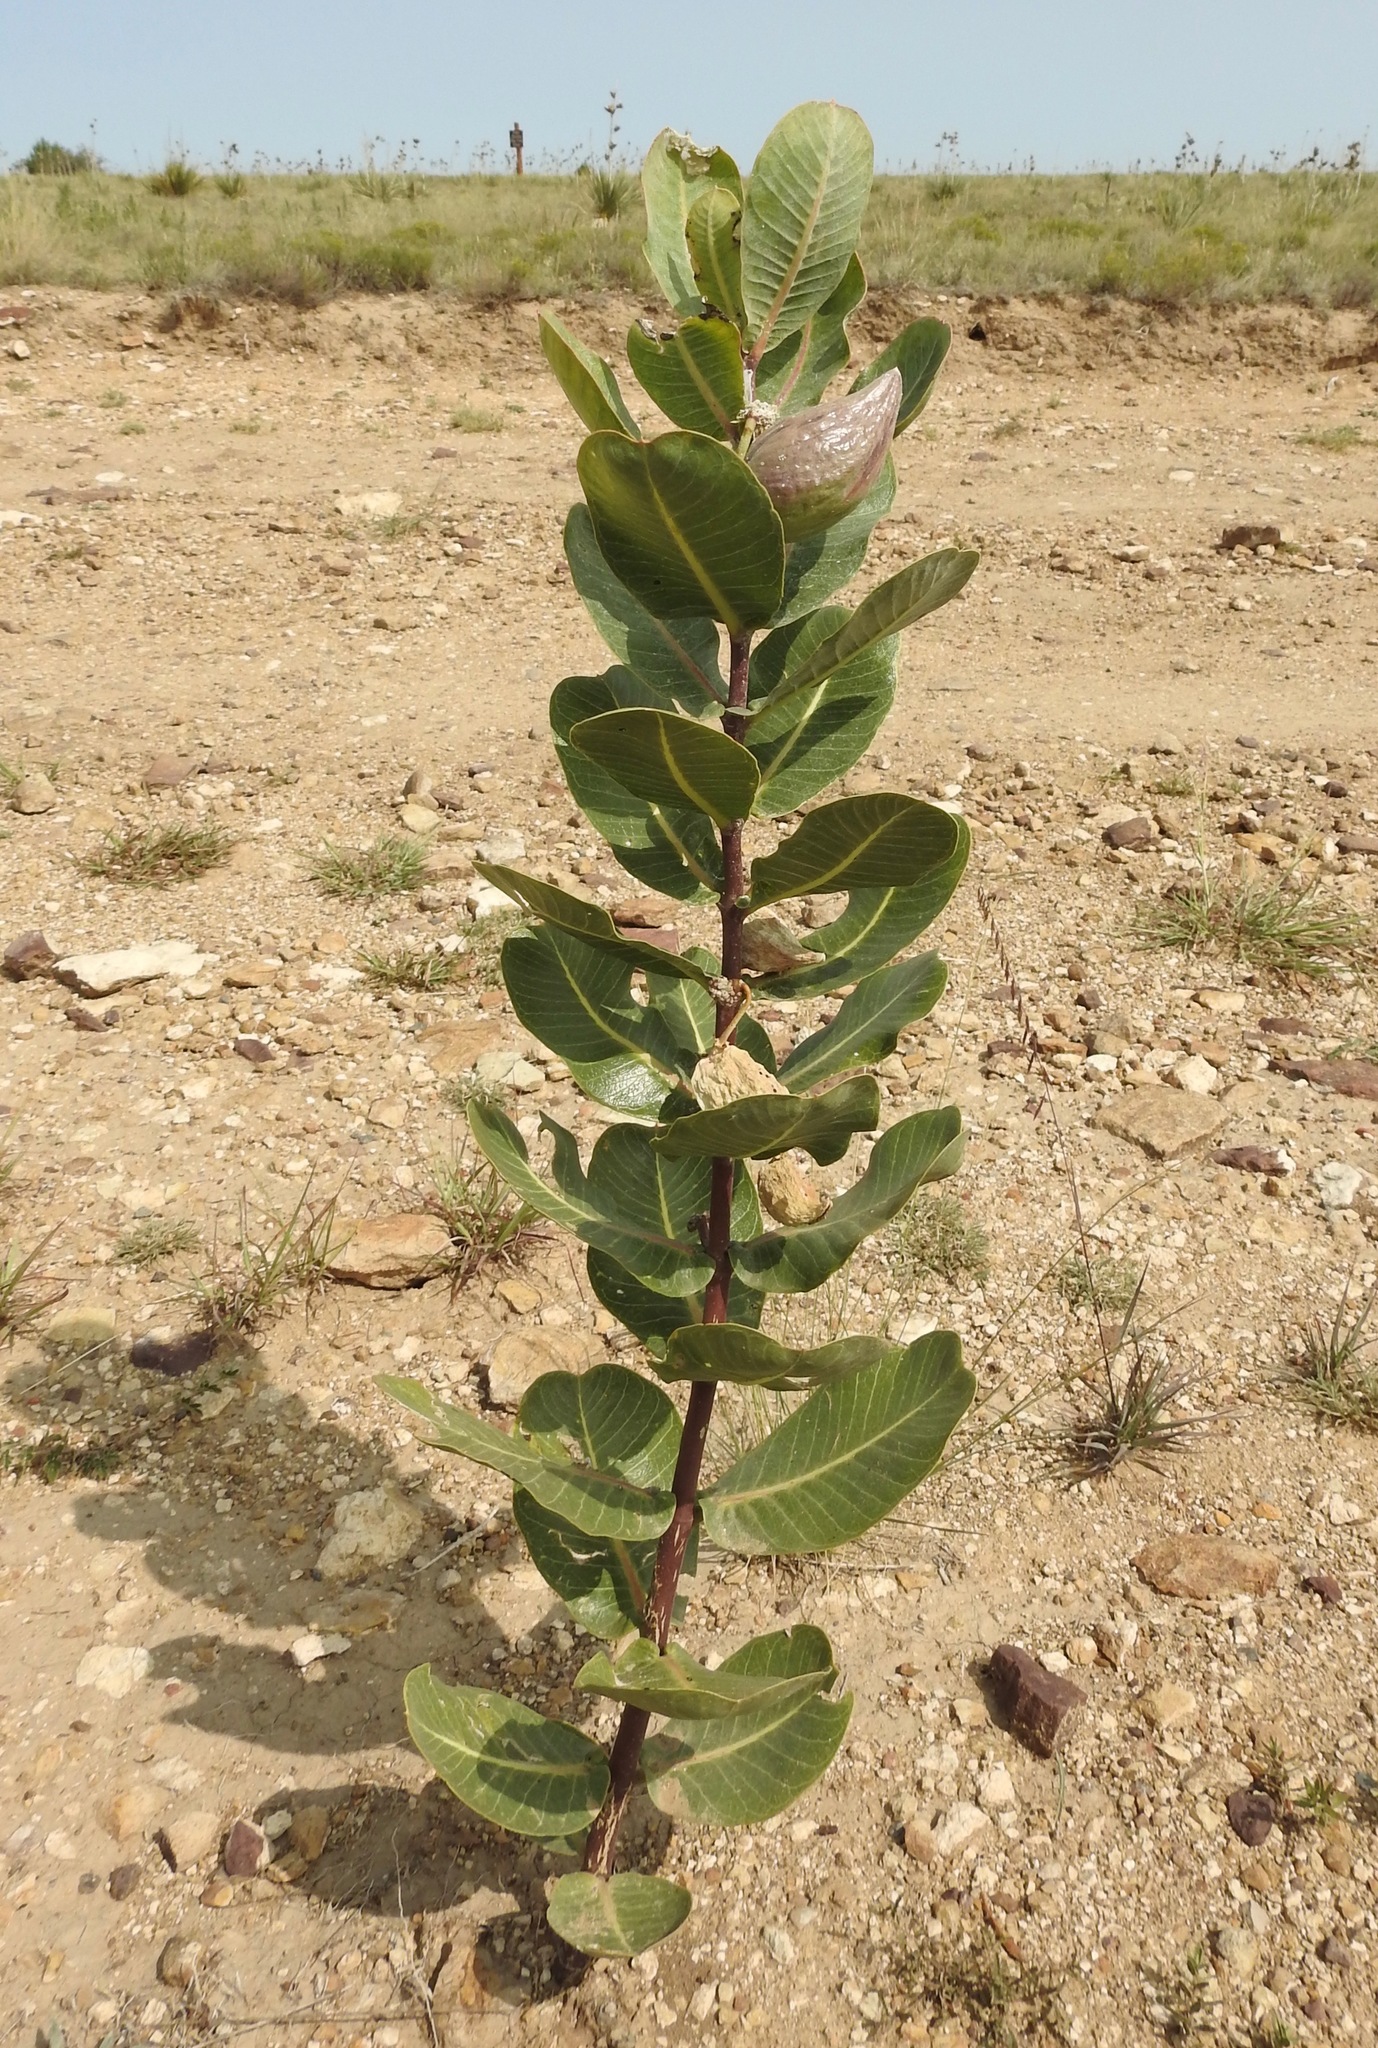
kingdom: Plantae
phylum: Tracheophyta
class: Magnoliopsida
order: Gentianales
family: Apocynaceae
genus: Asclepias
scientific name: Asclepias latifolia
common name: Broadleaf milkweed
